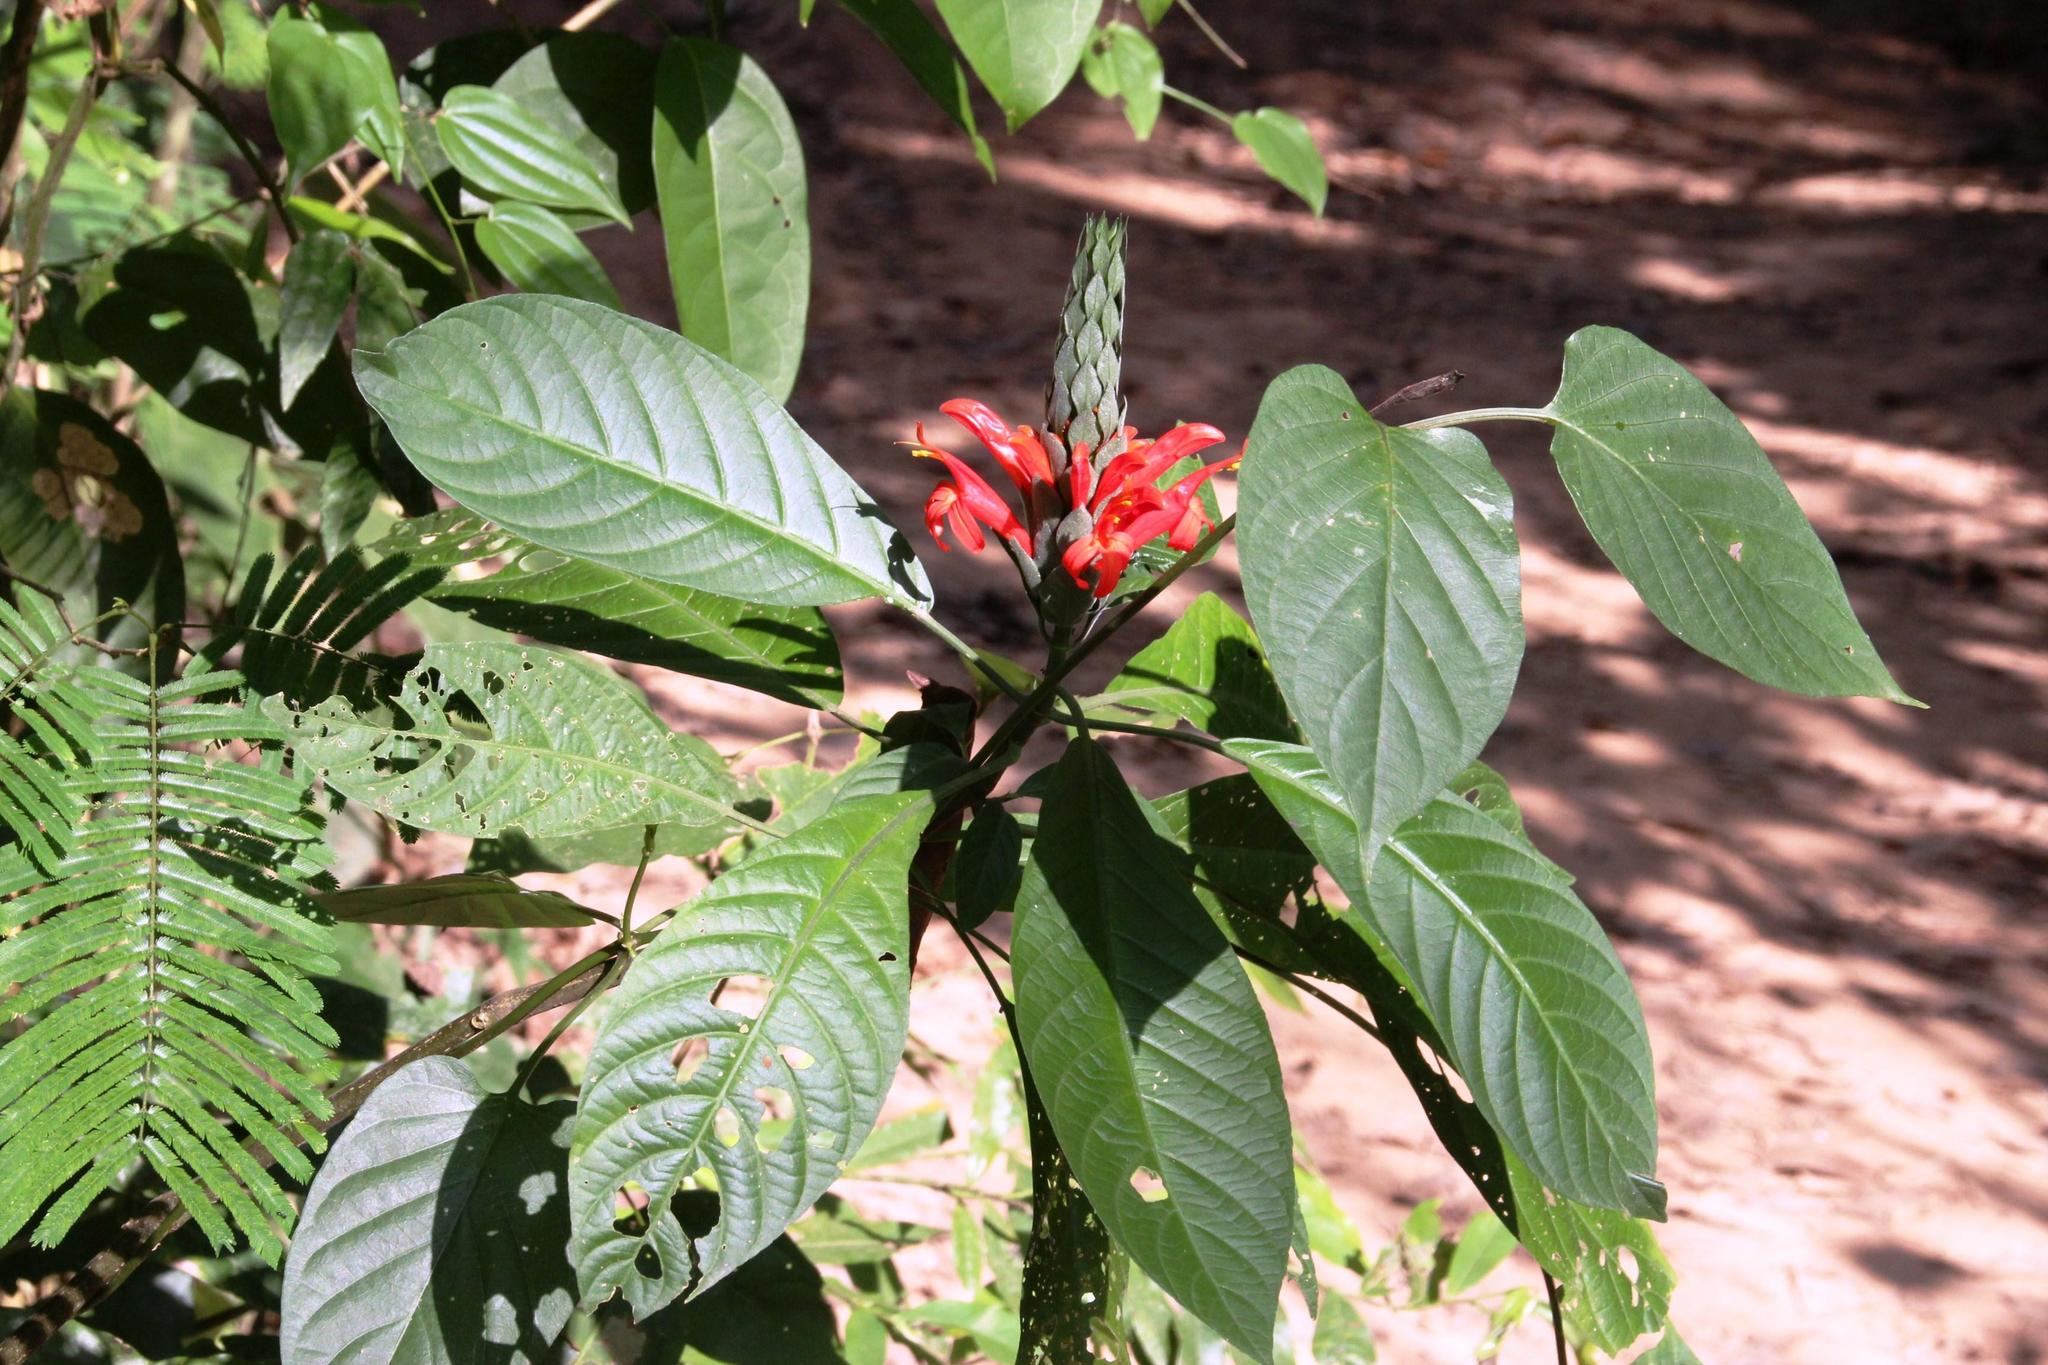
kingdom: Plantae
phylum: Tracheophyta
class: Magnoliopsida
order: Lamiales
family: Acanthaceae
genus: Pachystachys
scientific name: Pachystachys spicata
